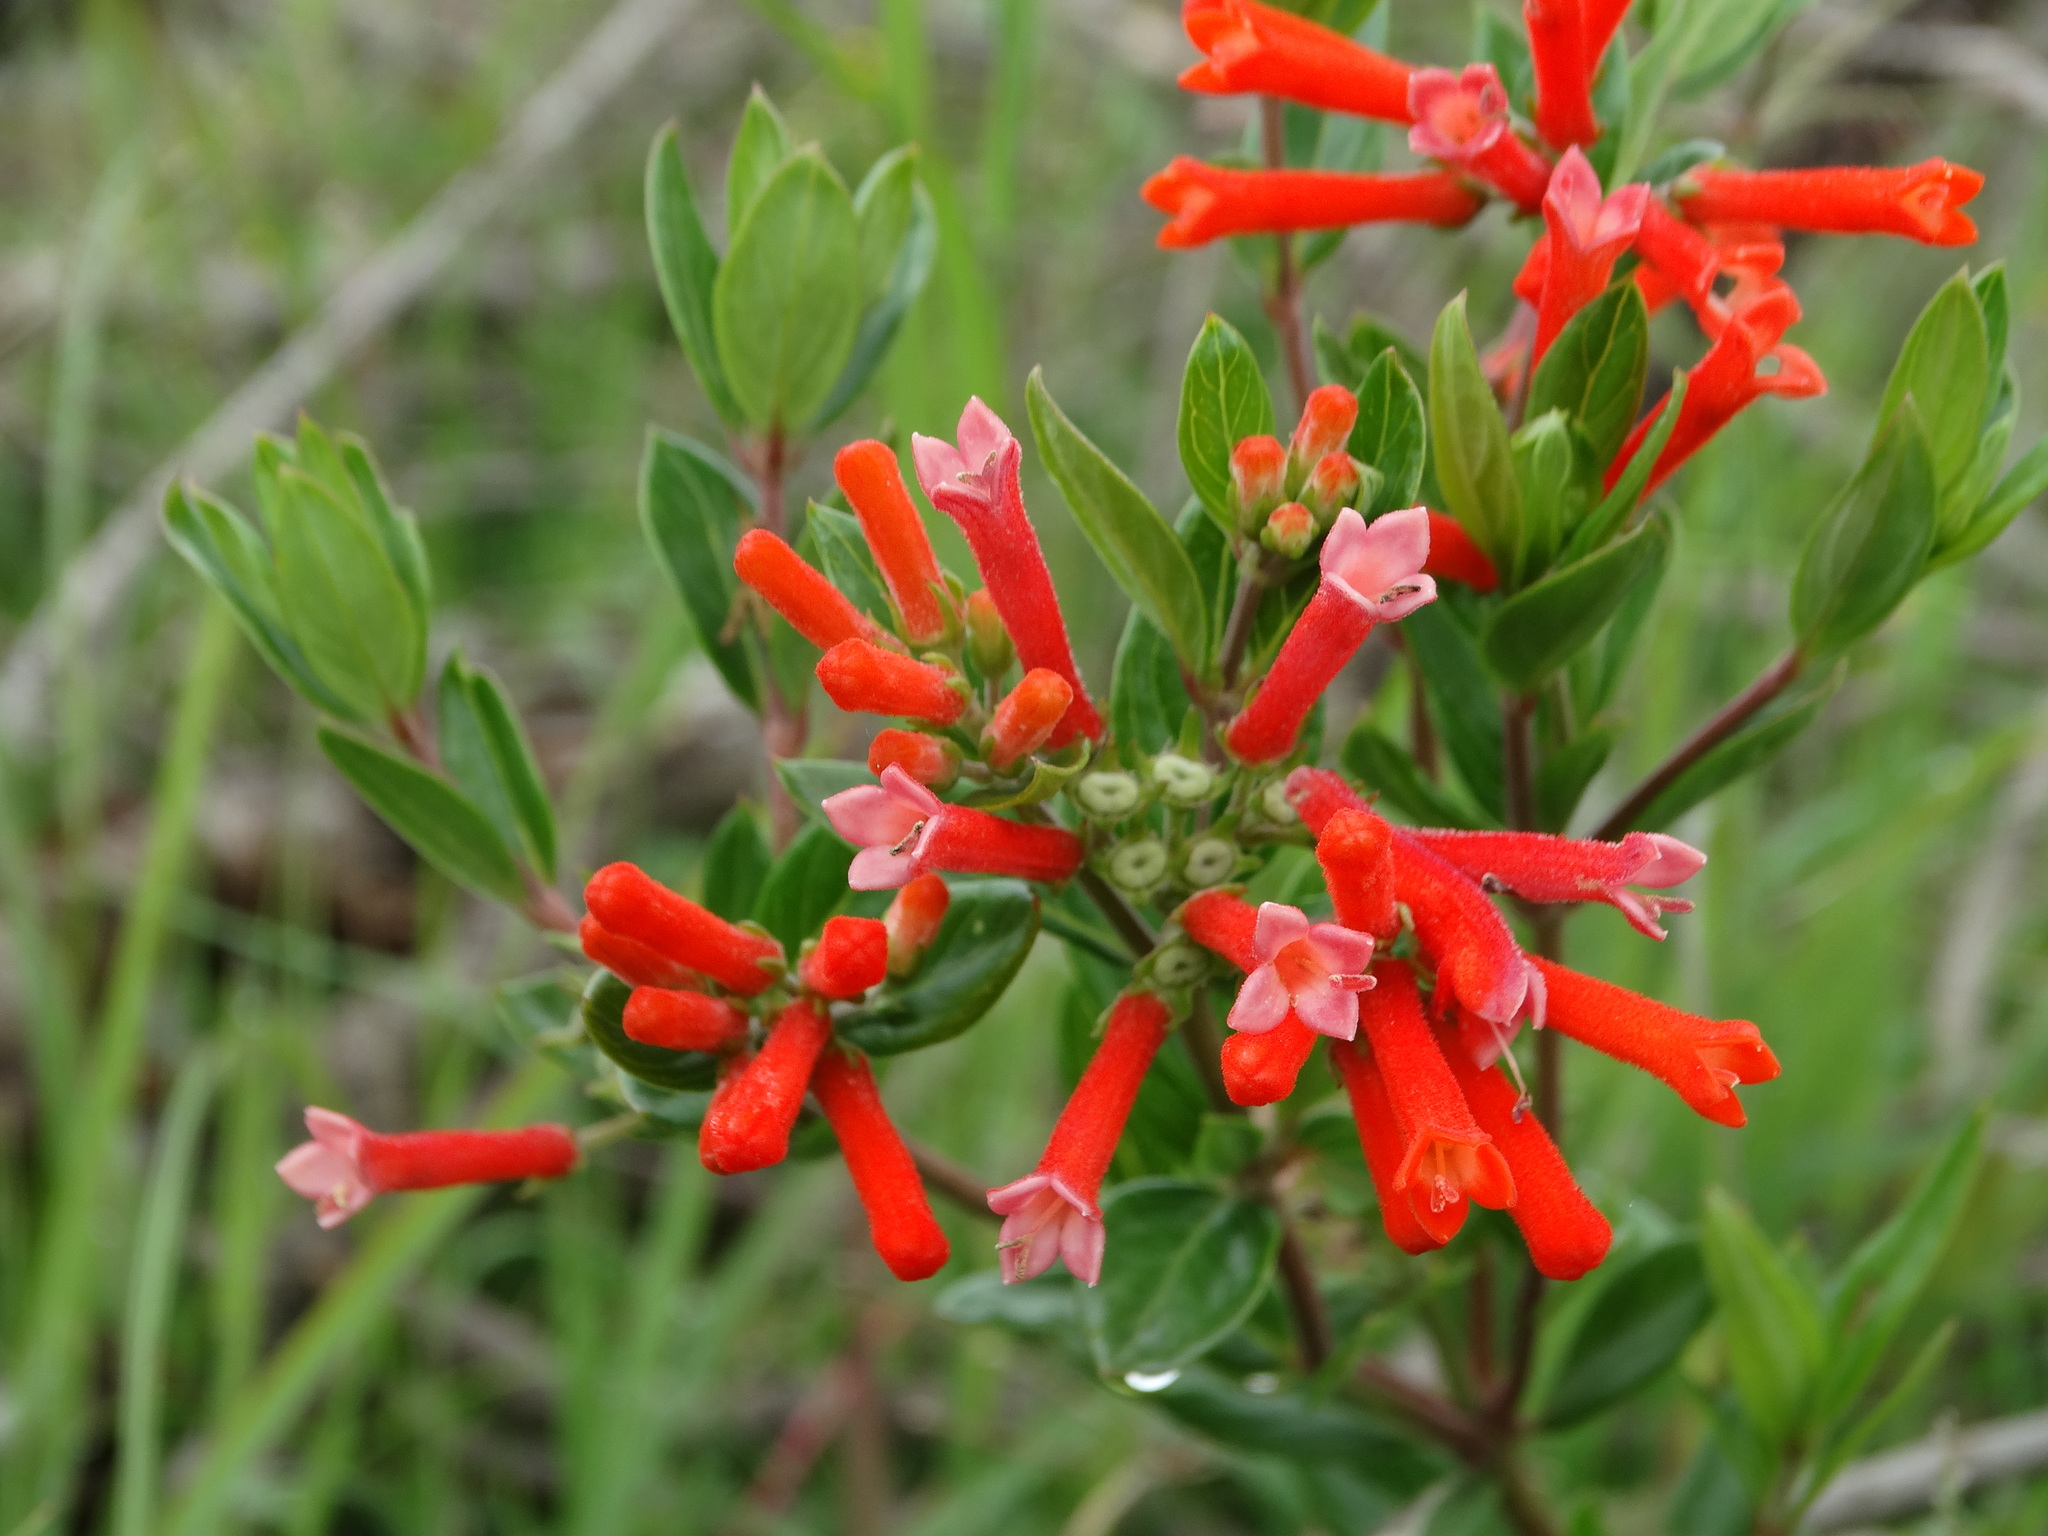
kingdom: Plantae
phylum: Tracheophyta
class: Magnoliopsida
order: Gentianales
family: Rubiaceae
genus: Bouvardia
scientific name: Bouvardia ternifolia
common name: Scarlet bouvardia
